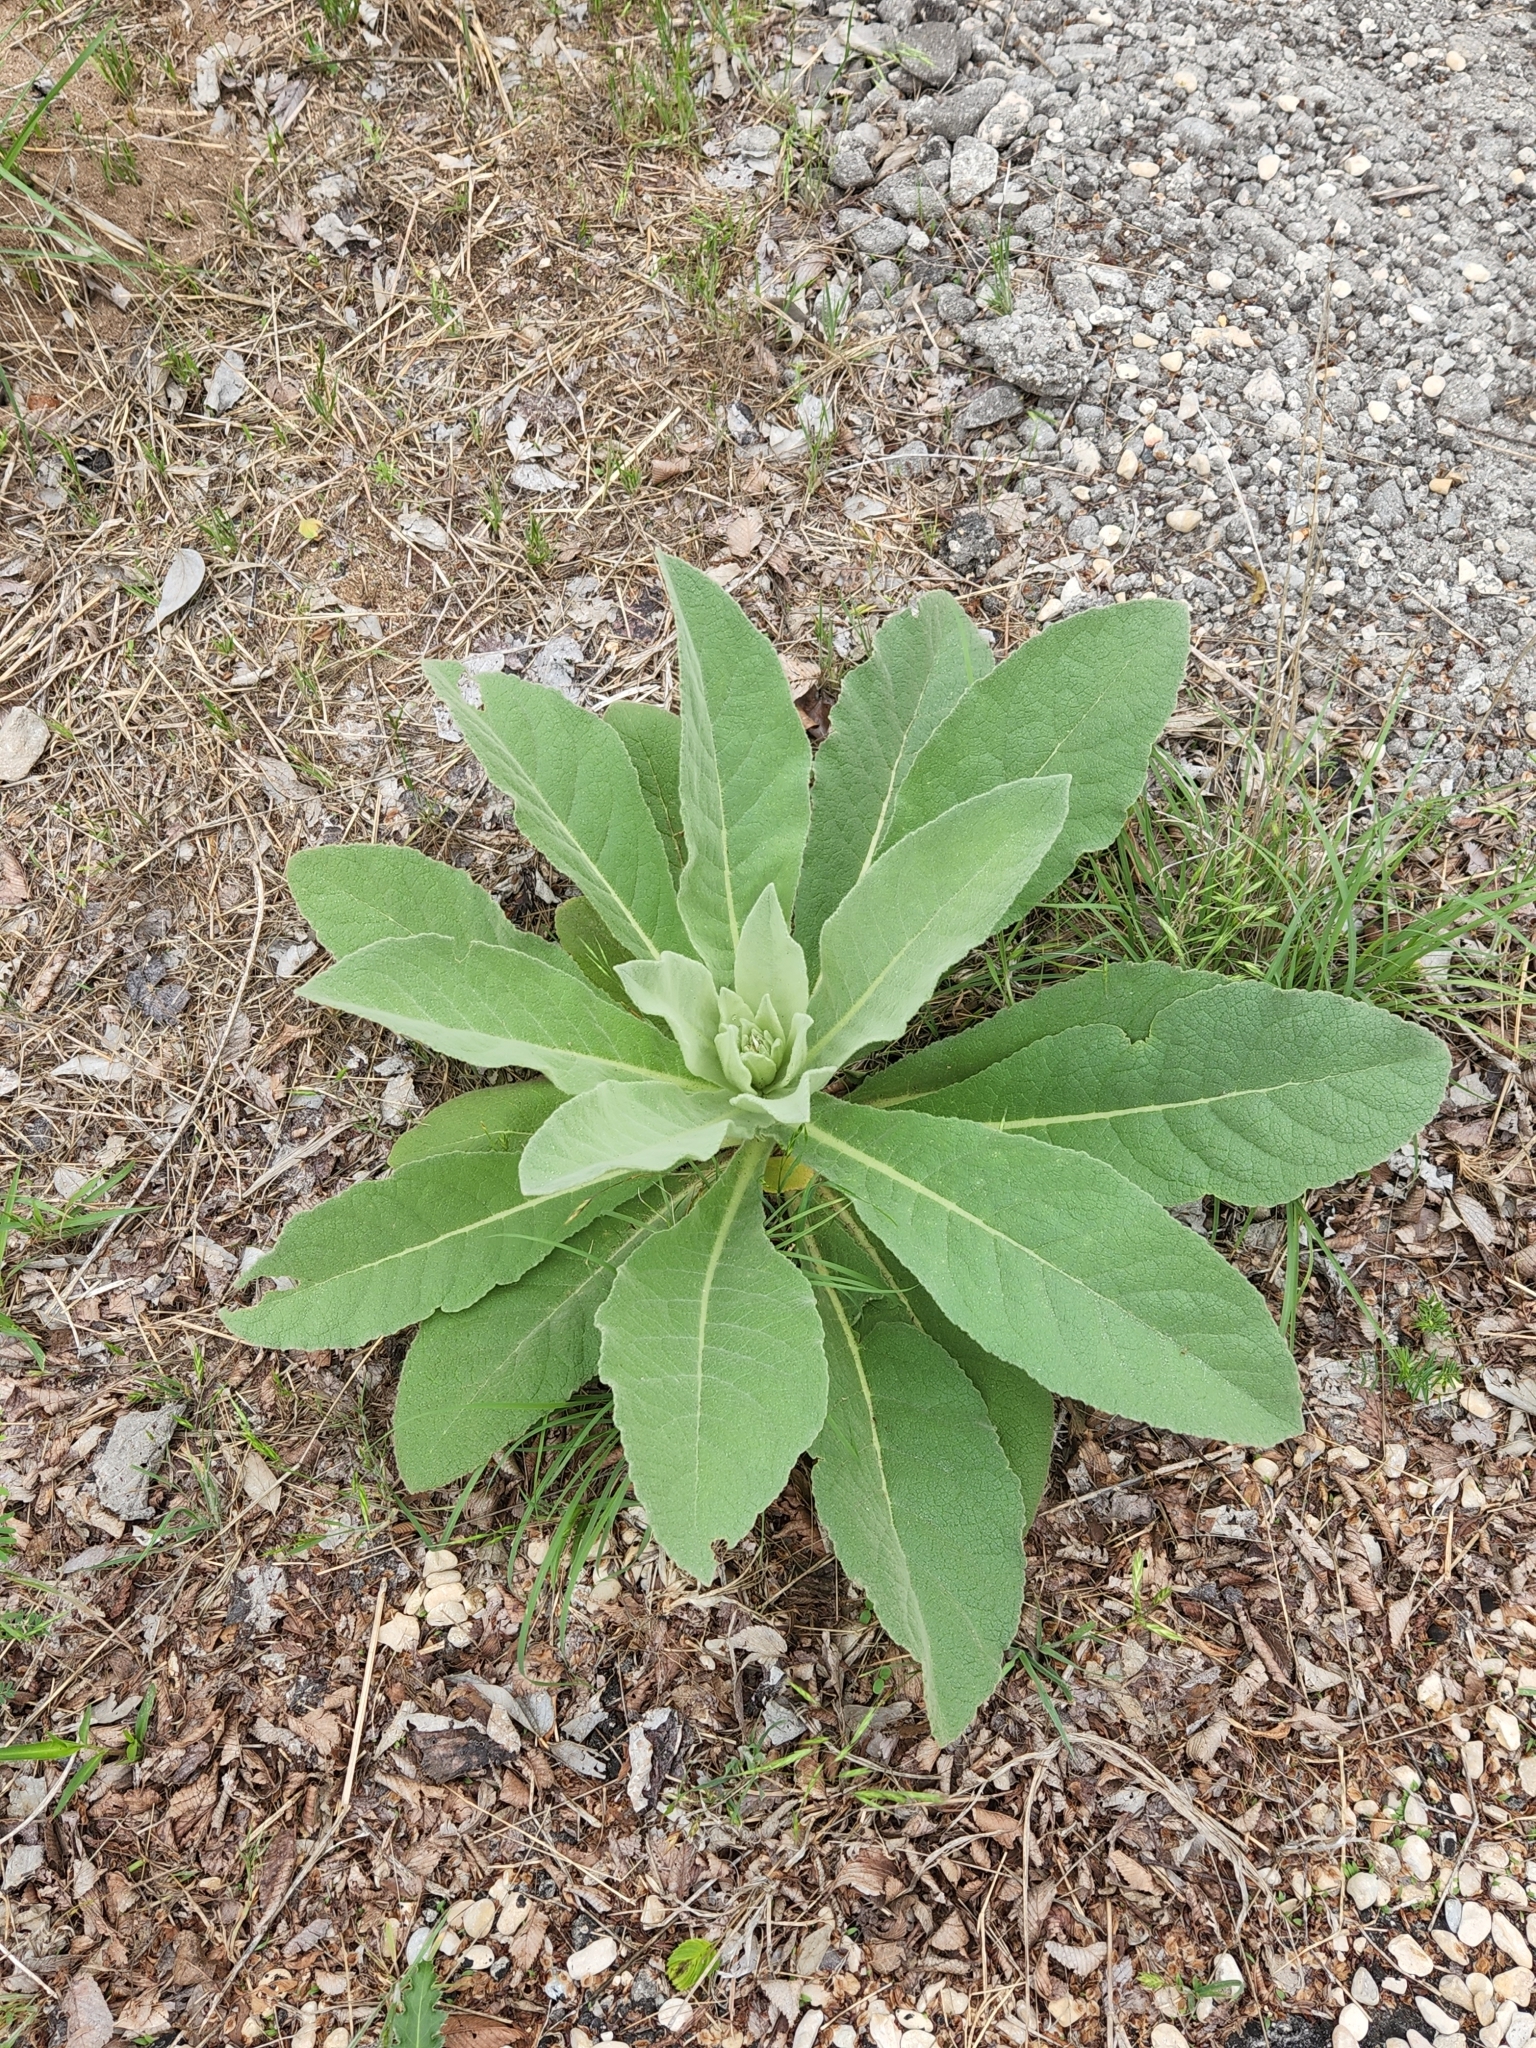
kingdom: Plantae
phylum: Tracheophyta
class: Magnoliopsida
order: Lamiales
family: Scrophulariaceae
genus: Verbascum
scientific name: Verbascum thapsus
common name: Common mullein
